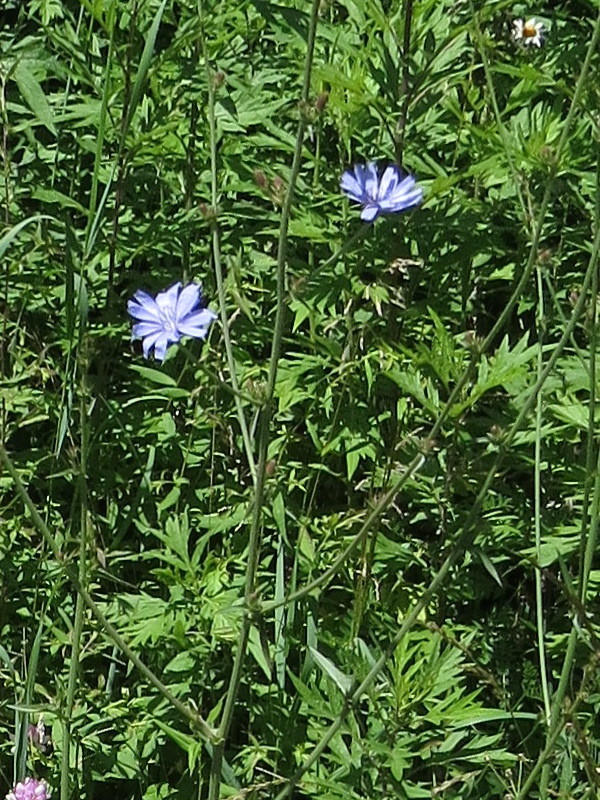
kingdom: Plantae
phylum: Tracheophyta
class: Magnoliopsida
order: Asterales
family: Asteraceae
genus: Cichorium
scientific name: Cichorium intybus
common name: Chicory
